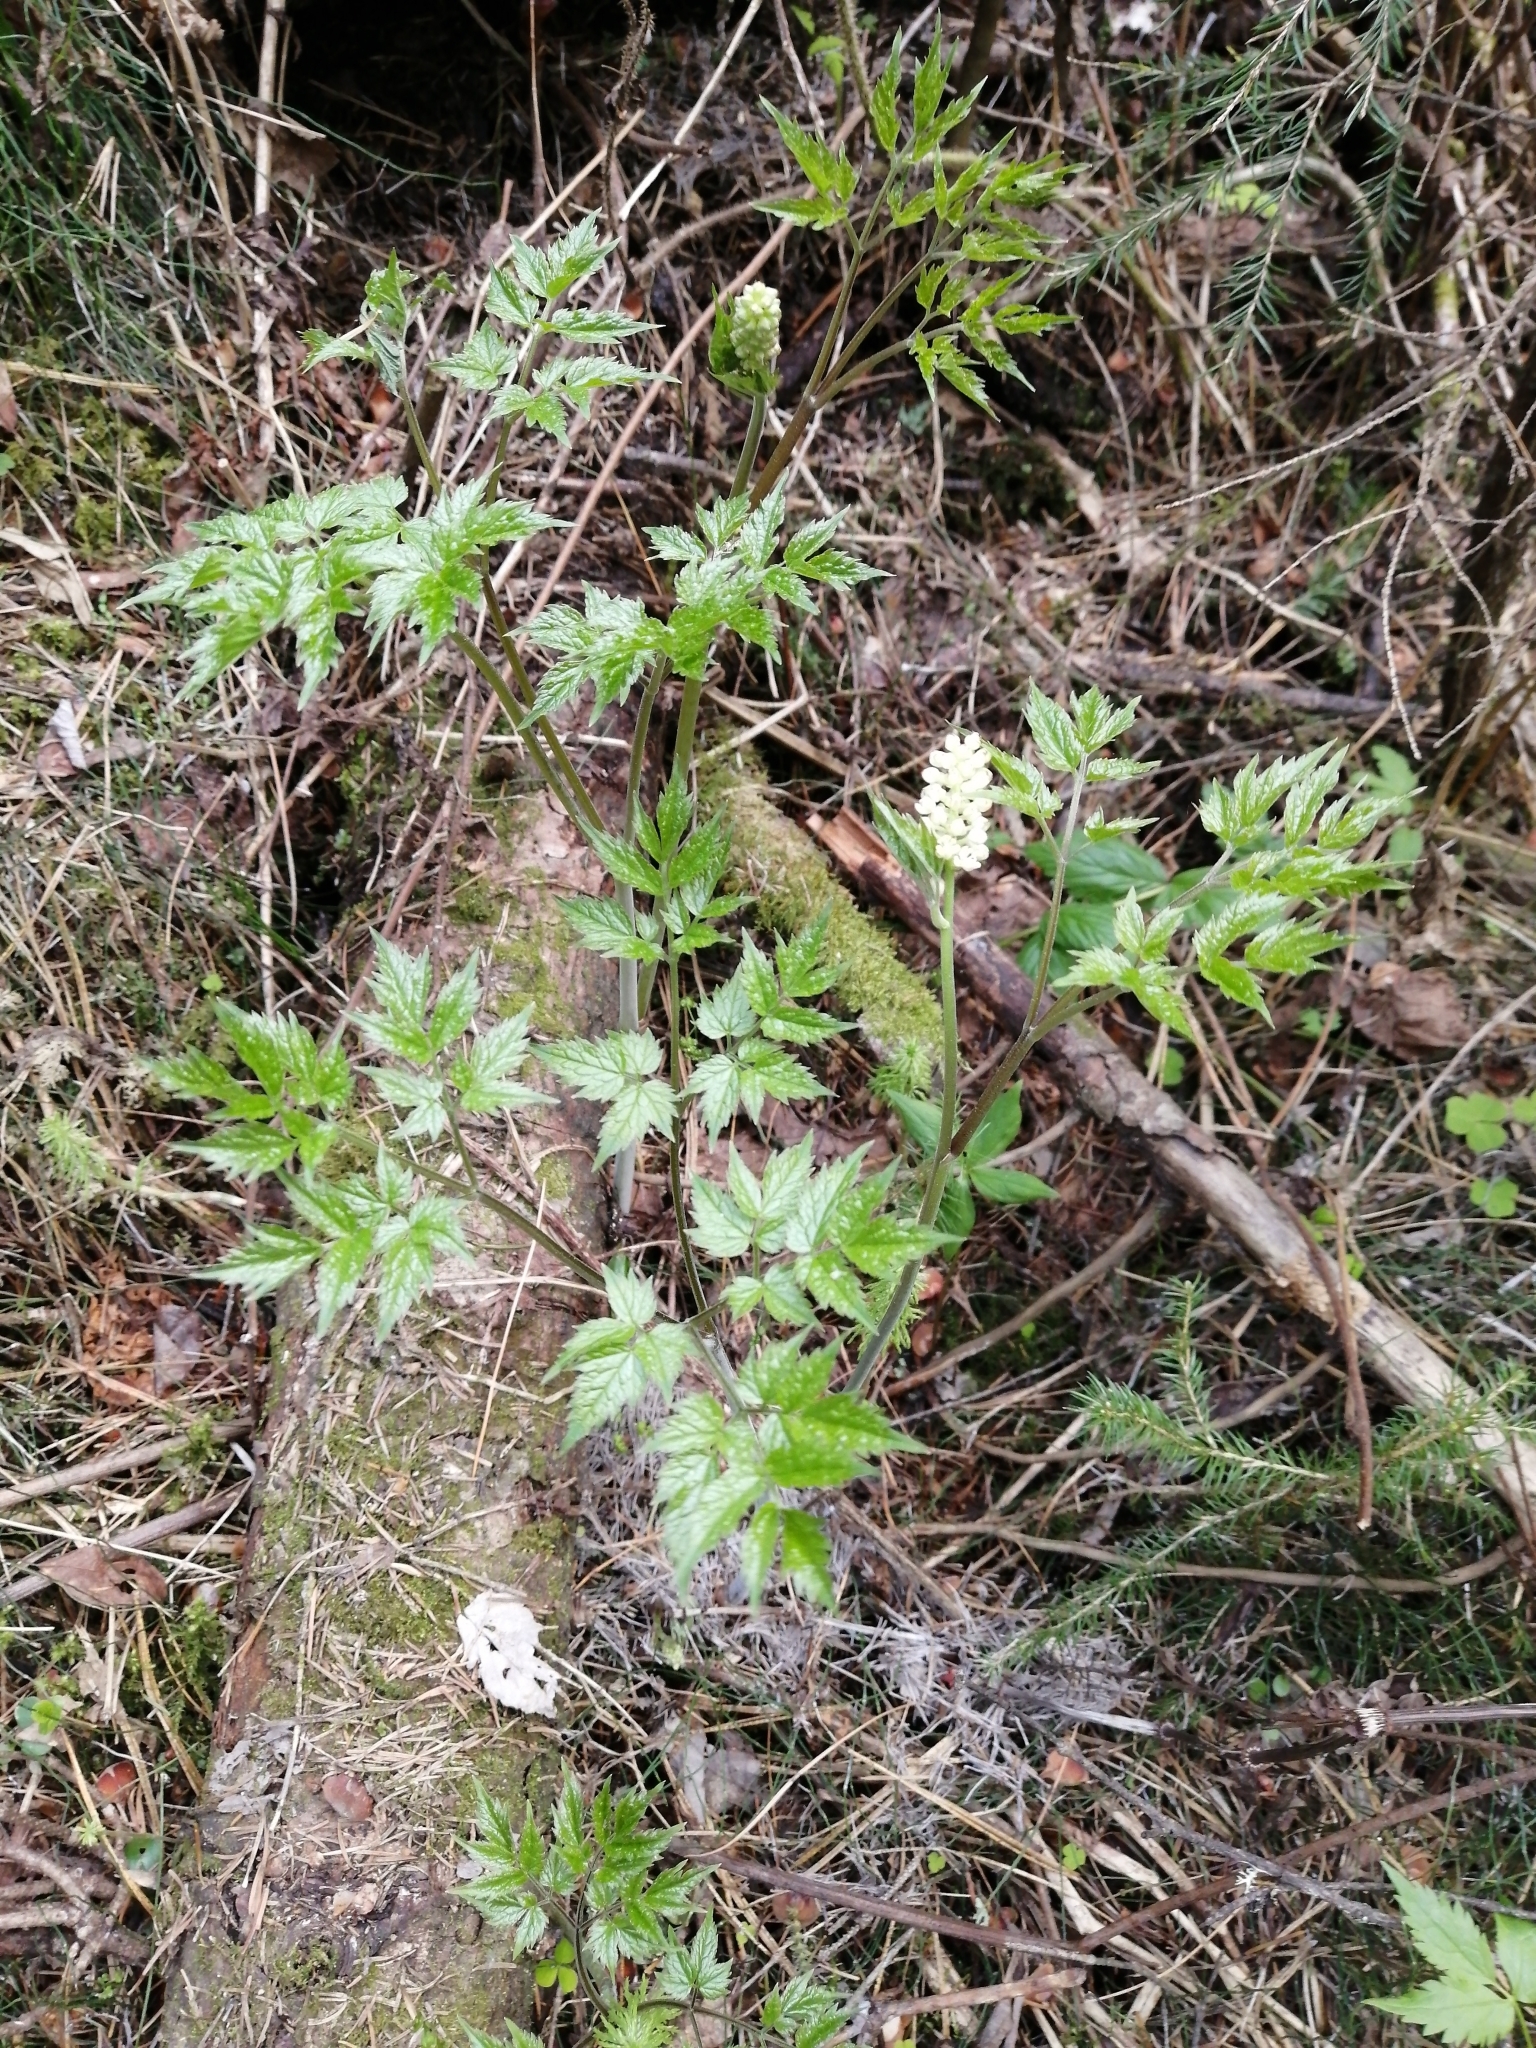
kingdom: Plantae
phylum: Tracheophyta
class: Magnoliopsida
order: Ranunculales
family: Ranunculaceae
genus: Actaea
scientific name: Actaea erythrocarpa
